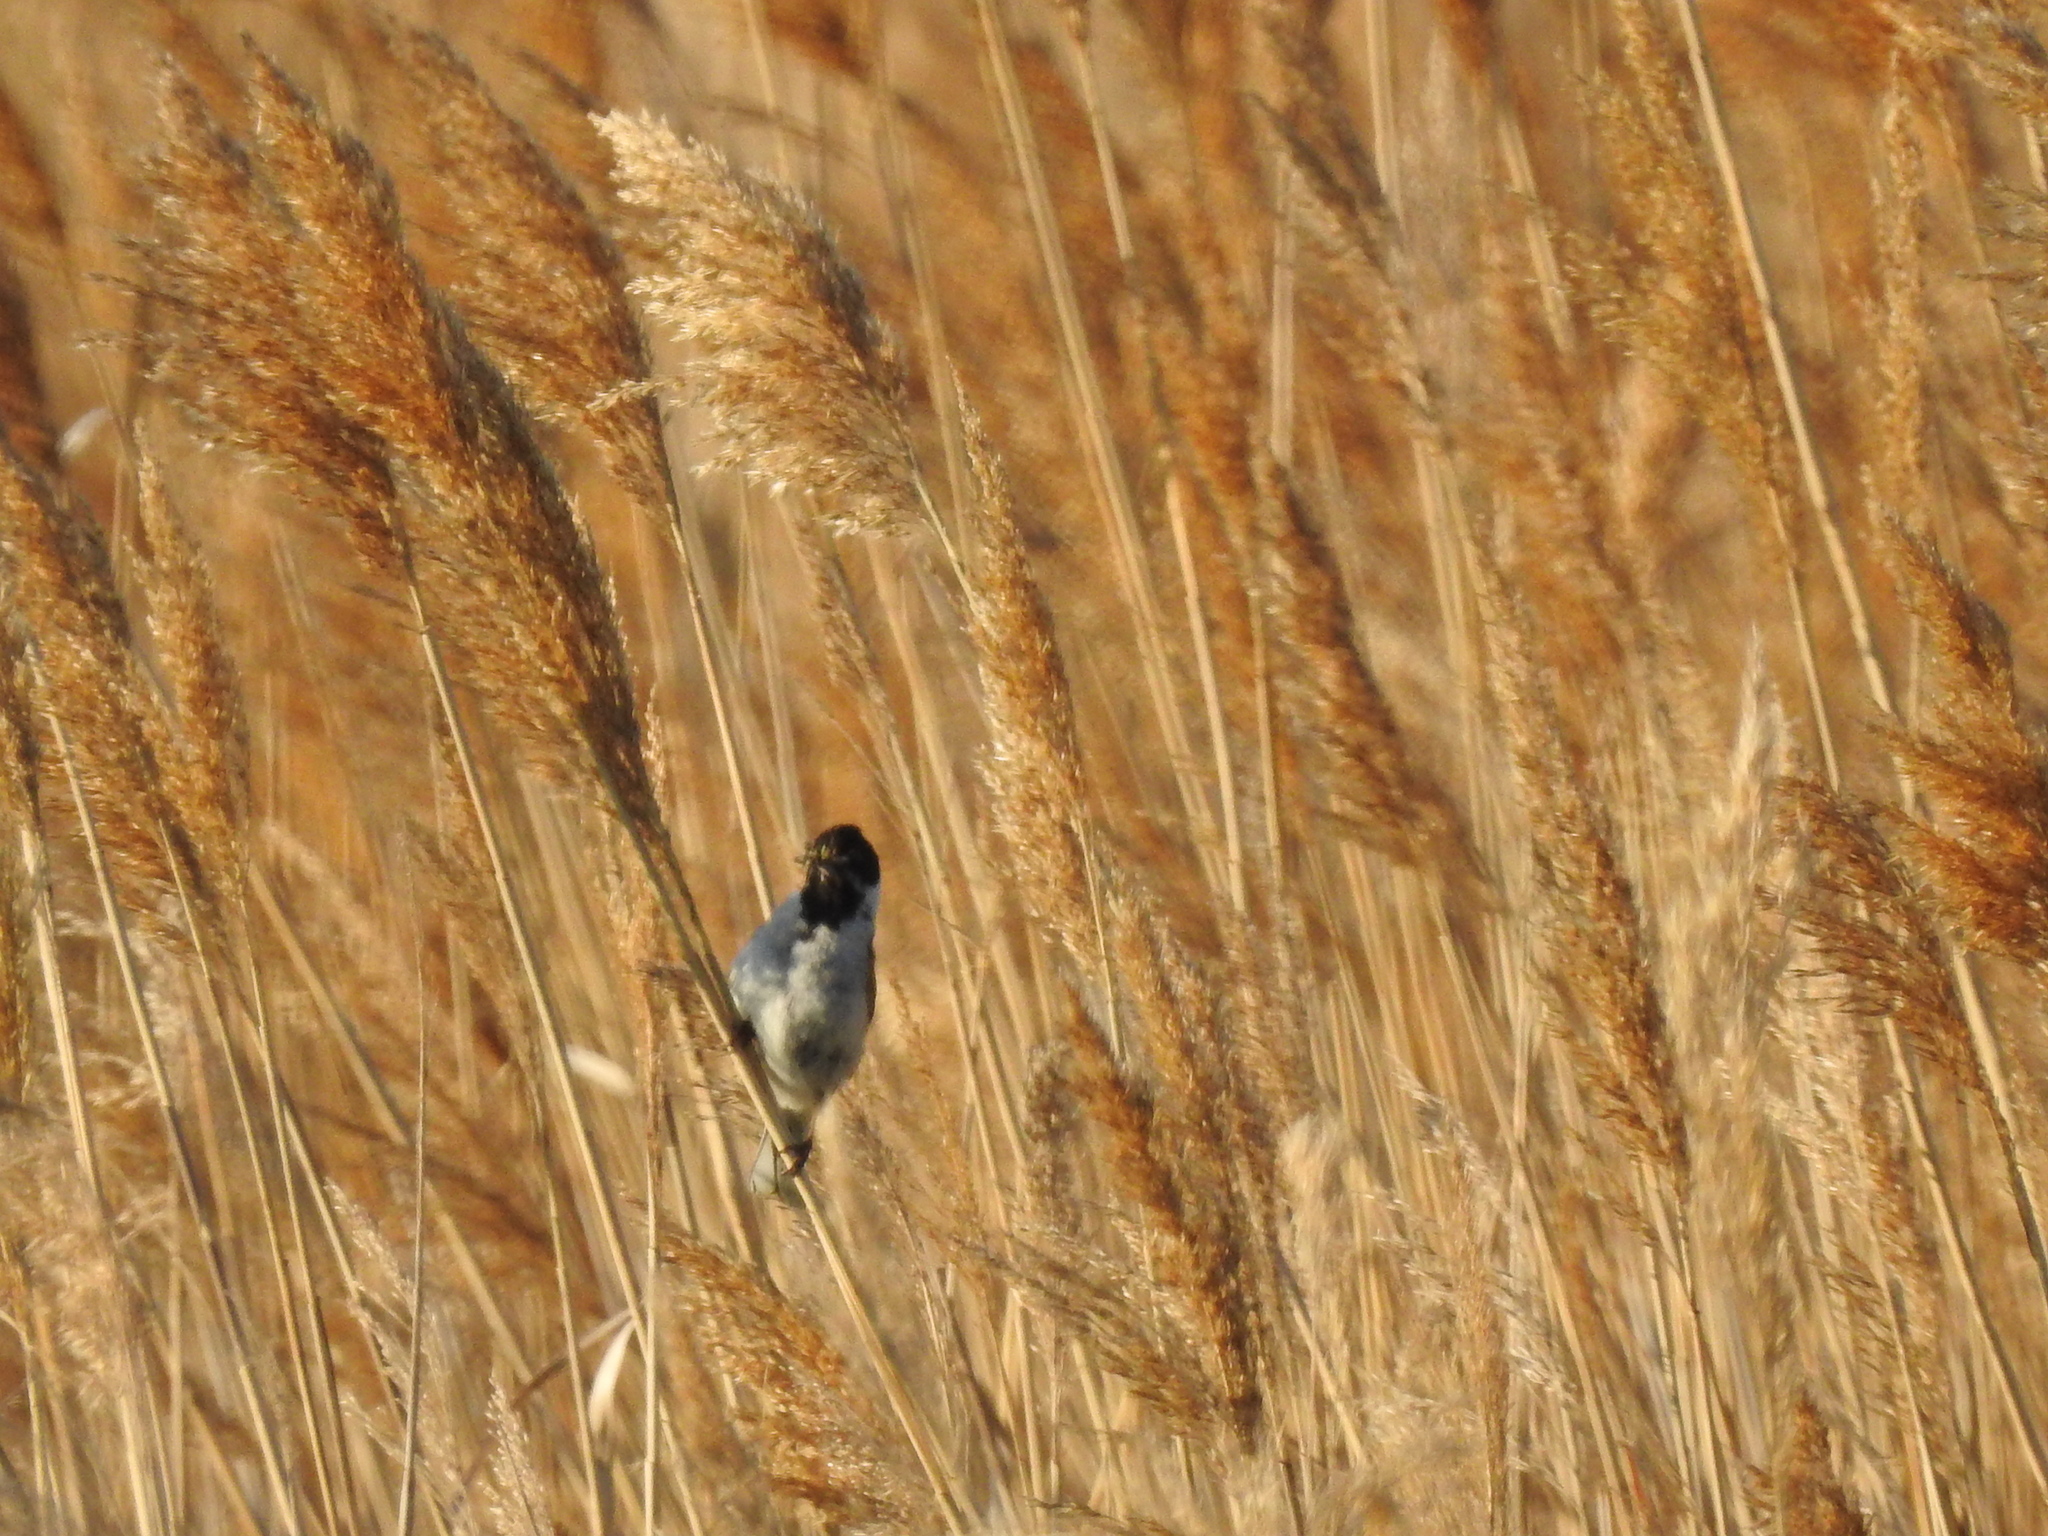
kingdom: Animalia
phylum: Chordata
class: Aves
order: Passeriformes
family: Emberizidae
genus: Emberiza
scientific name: Emberiza schoeniclus
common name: Reed bunting
